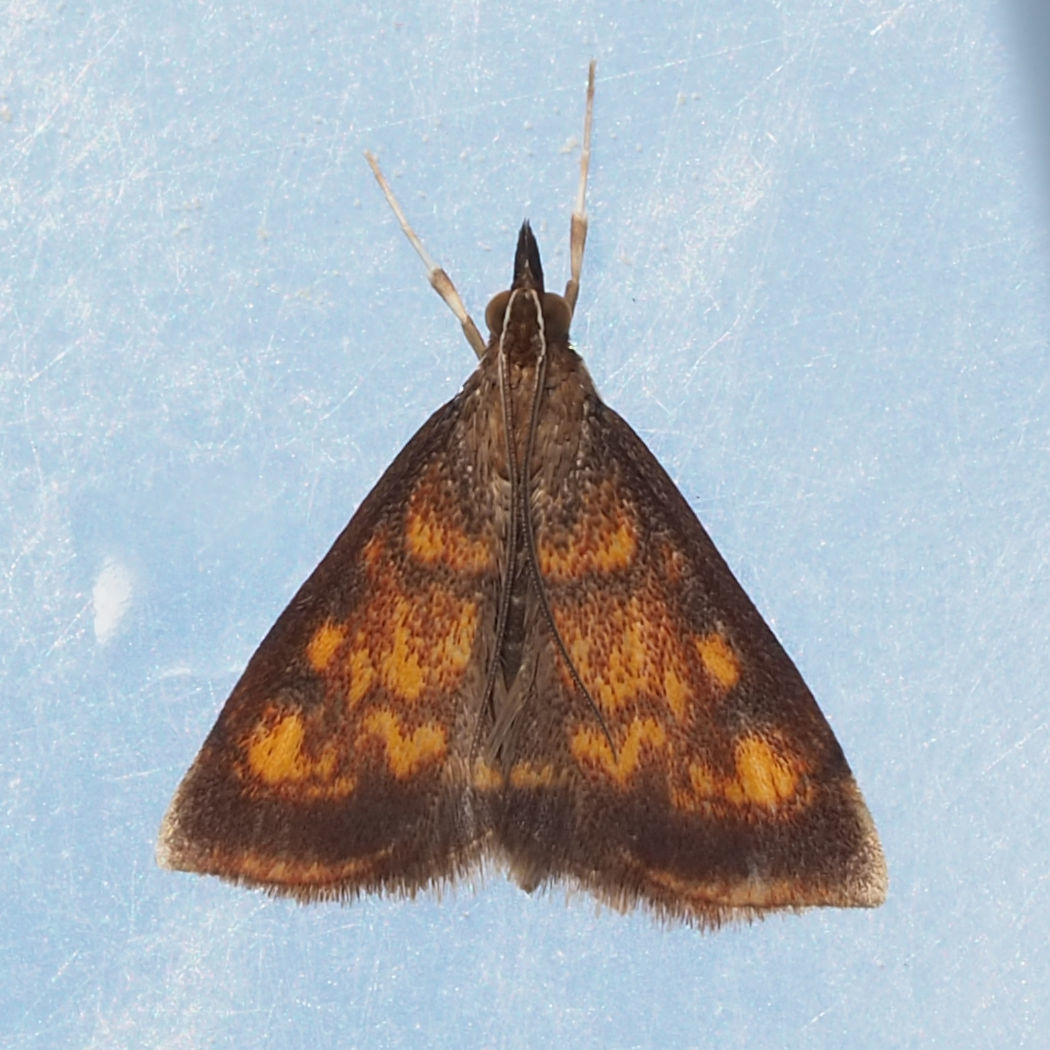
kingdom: Animalia
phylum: Arthropoda
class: Insecta
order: Lepidoptera
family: Crambidae
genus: Pyrausta
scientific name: Pyrausta acrionalis
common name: Mint-loving pyrausta moth
